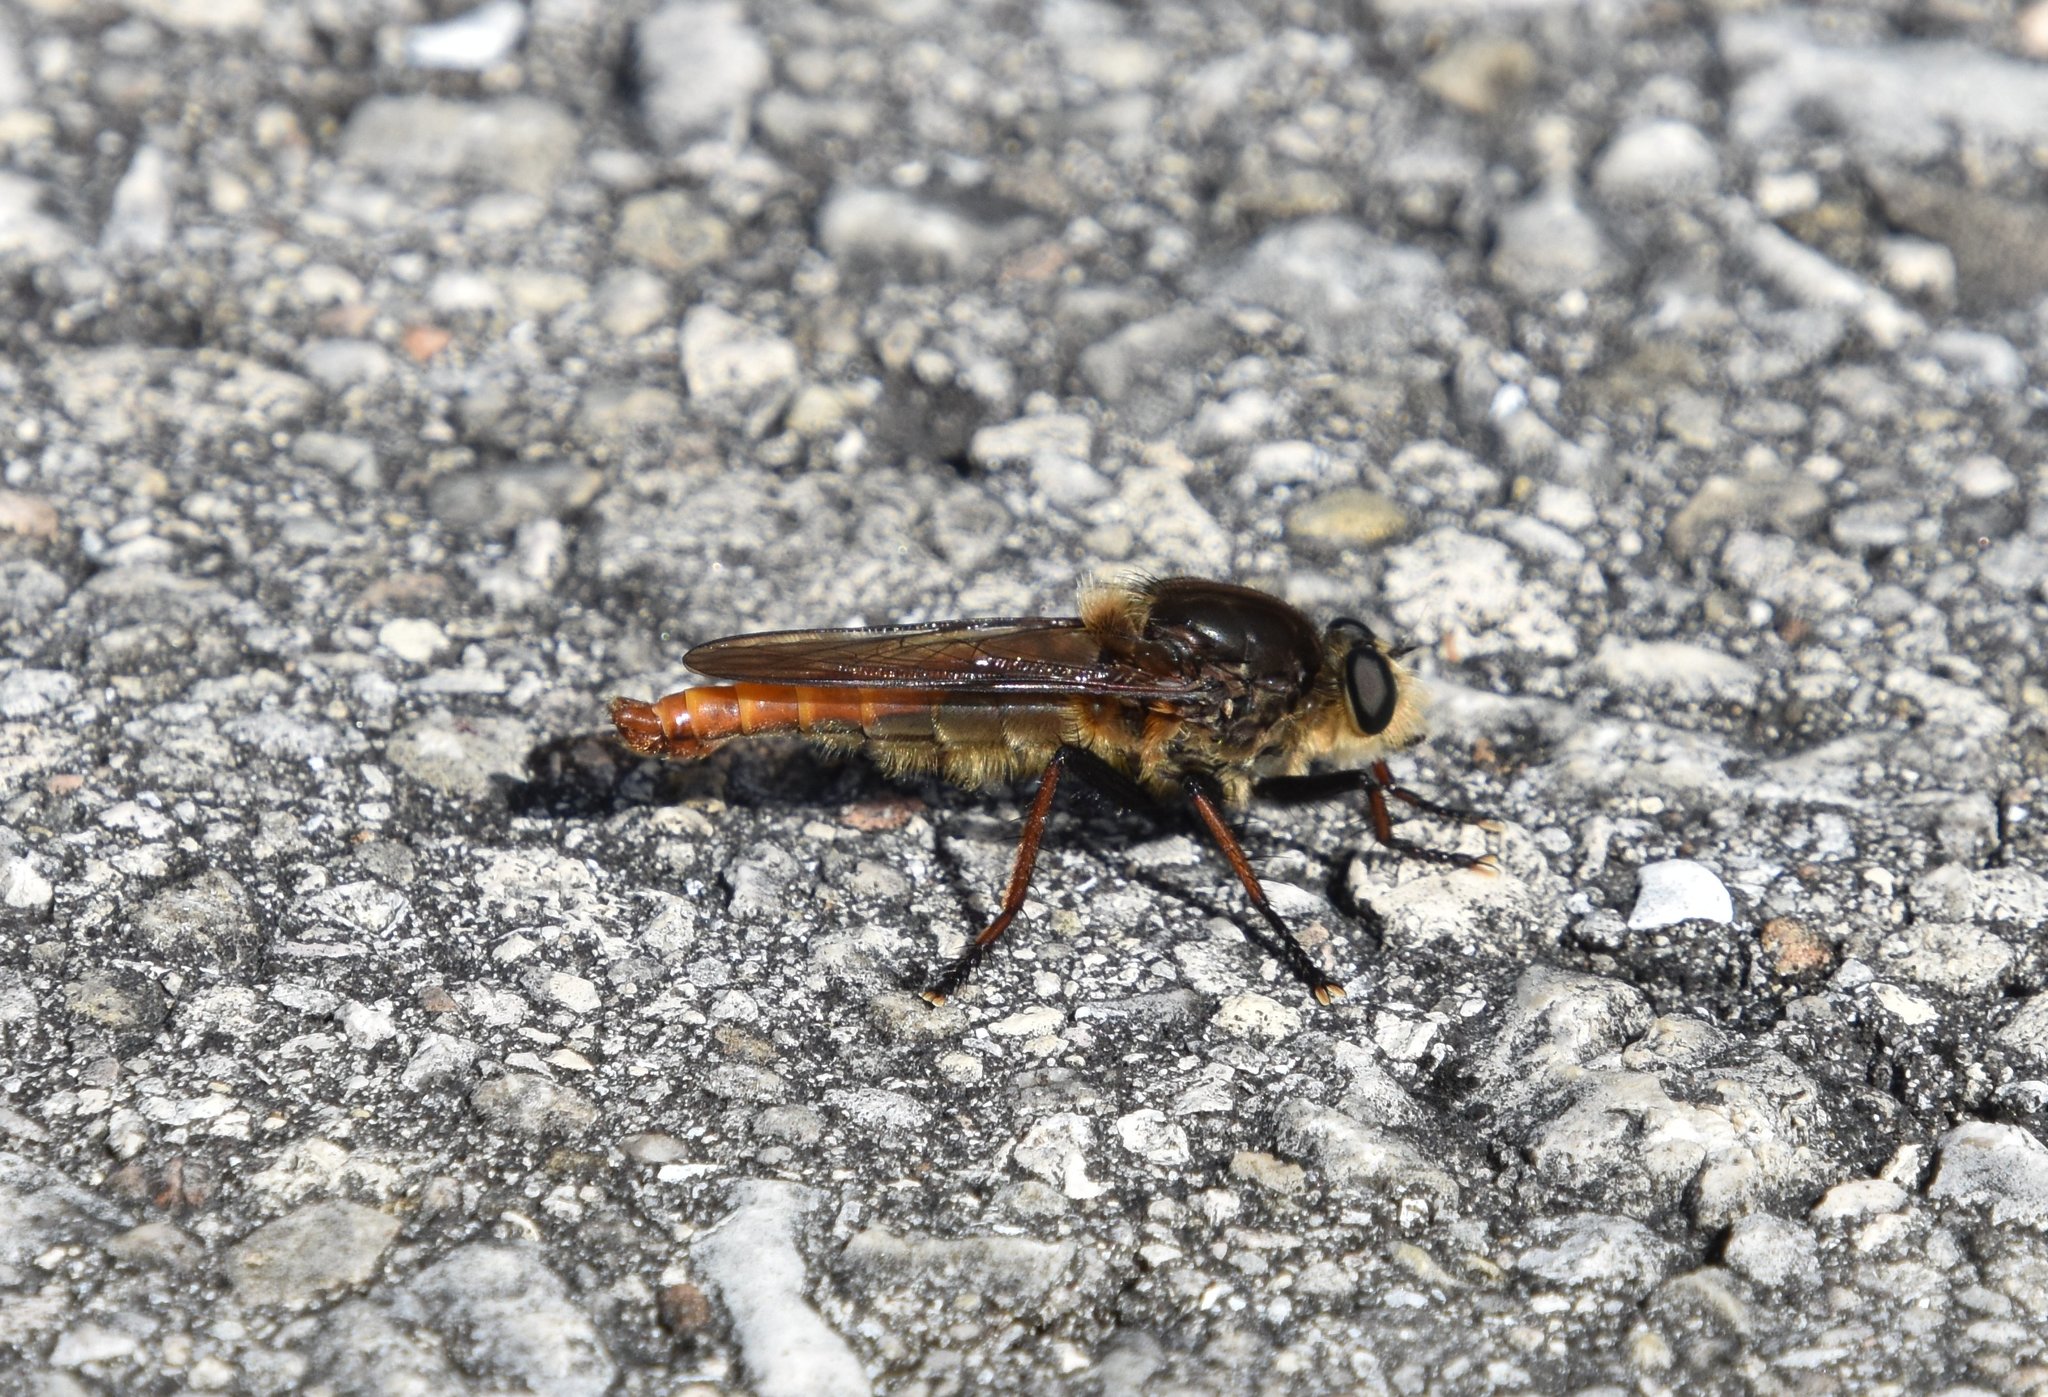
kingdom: Animalia
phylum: Arthropoda
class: Insecta
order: Diptera
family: Asilidae
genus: Proctacanthus
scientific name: Proctacanthus fulviventris
